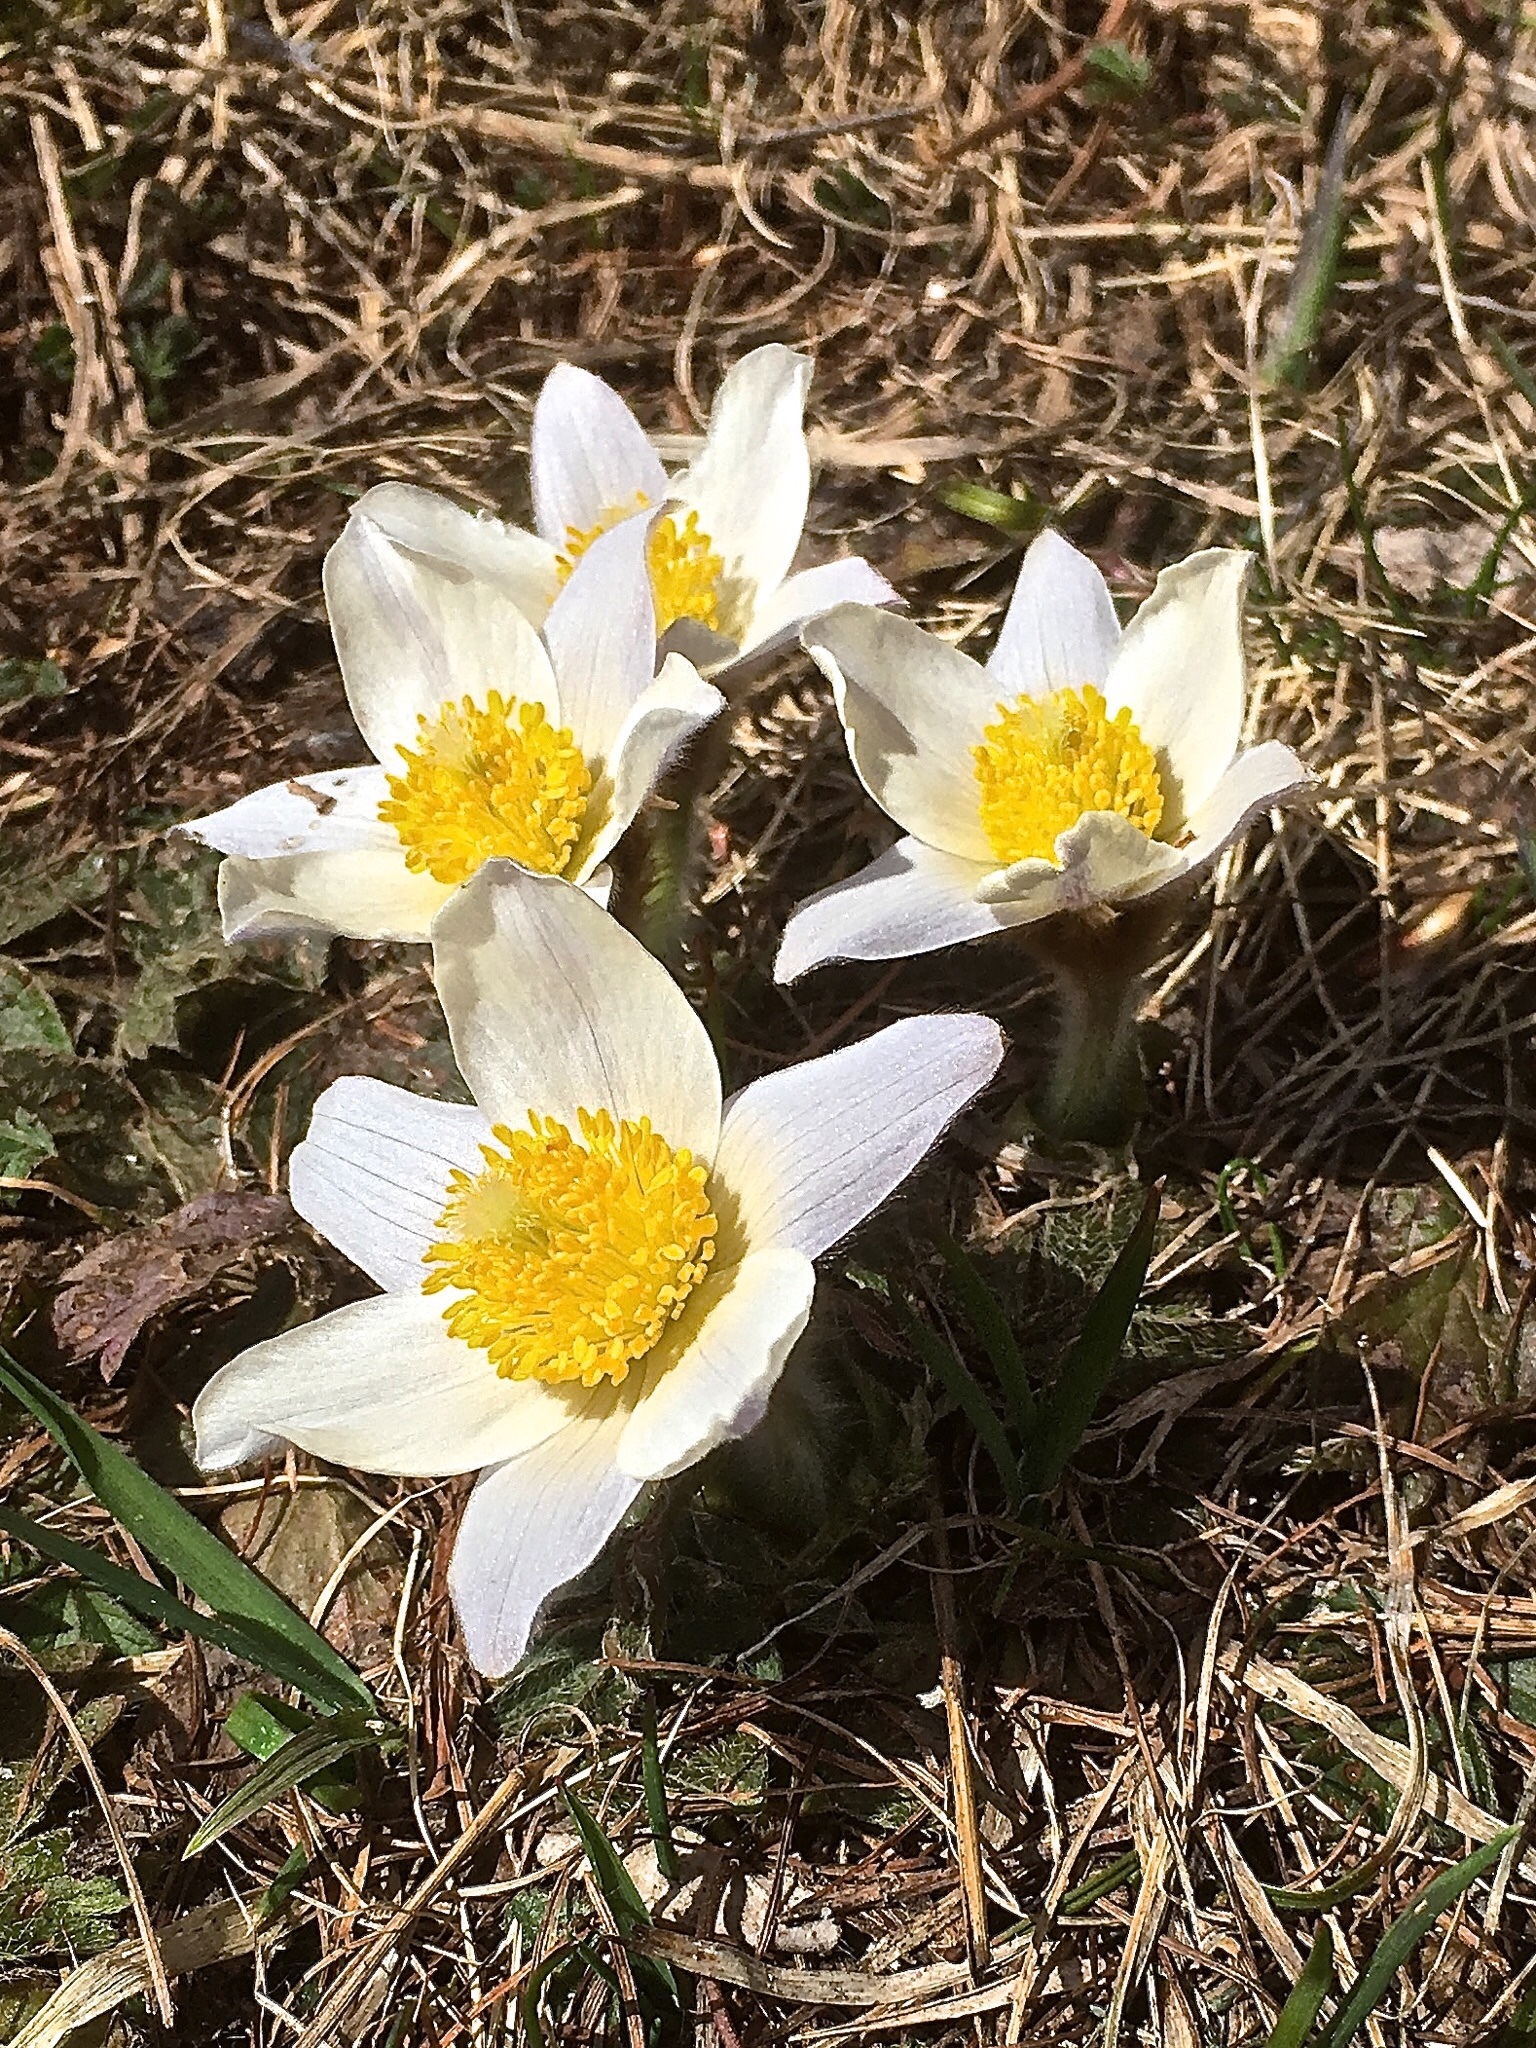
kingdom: Plantae
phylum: Tracheophyta
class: Magnoliopsida
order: Ranunculales
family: Ranunculaceae
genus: Pulsatilla
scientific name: Pulsatilla vernalis
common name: Spring pasque flower
